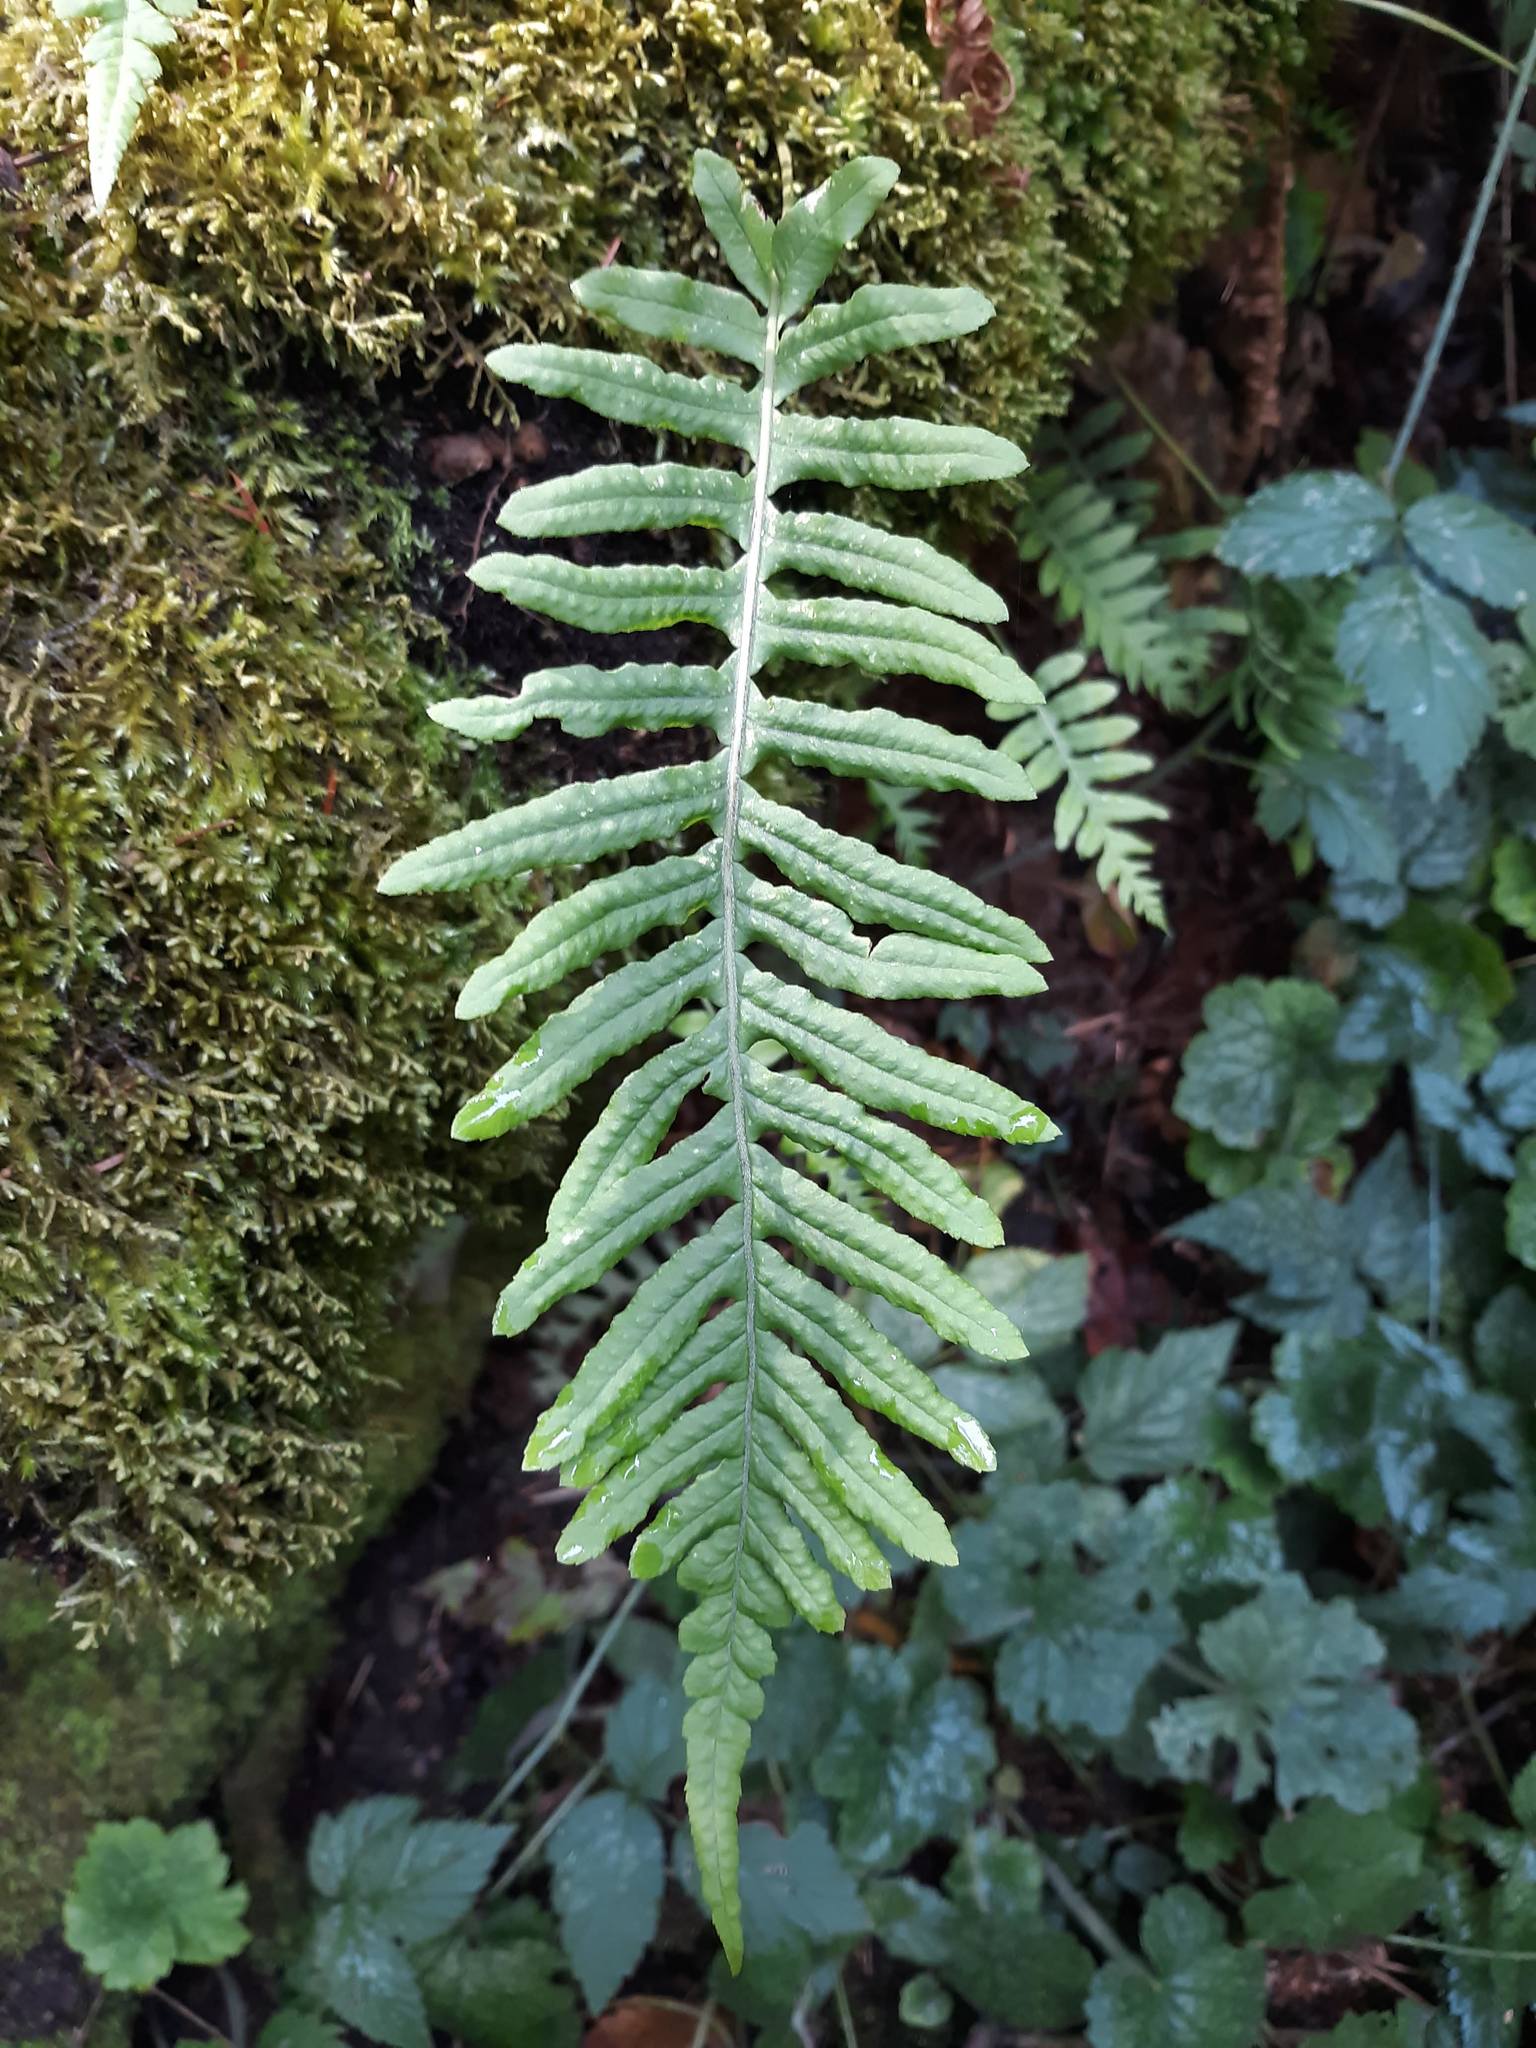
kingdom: Plantae
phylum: Tracheophyta
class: Polypodiopsida
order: Polypodiales
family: Polypodiaceae
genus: Polypodium
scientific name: Polypodium glycyrrhiza
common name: Licorice fern
